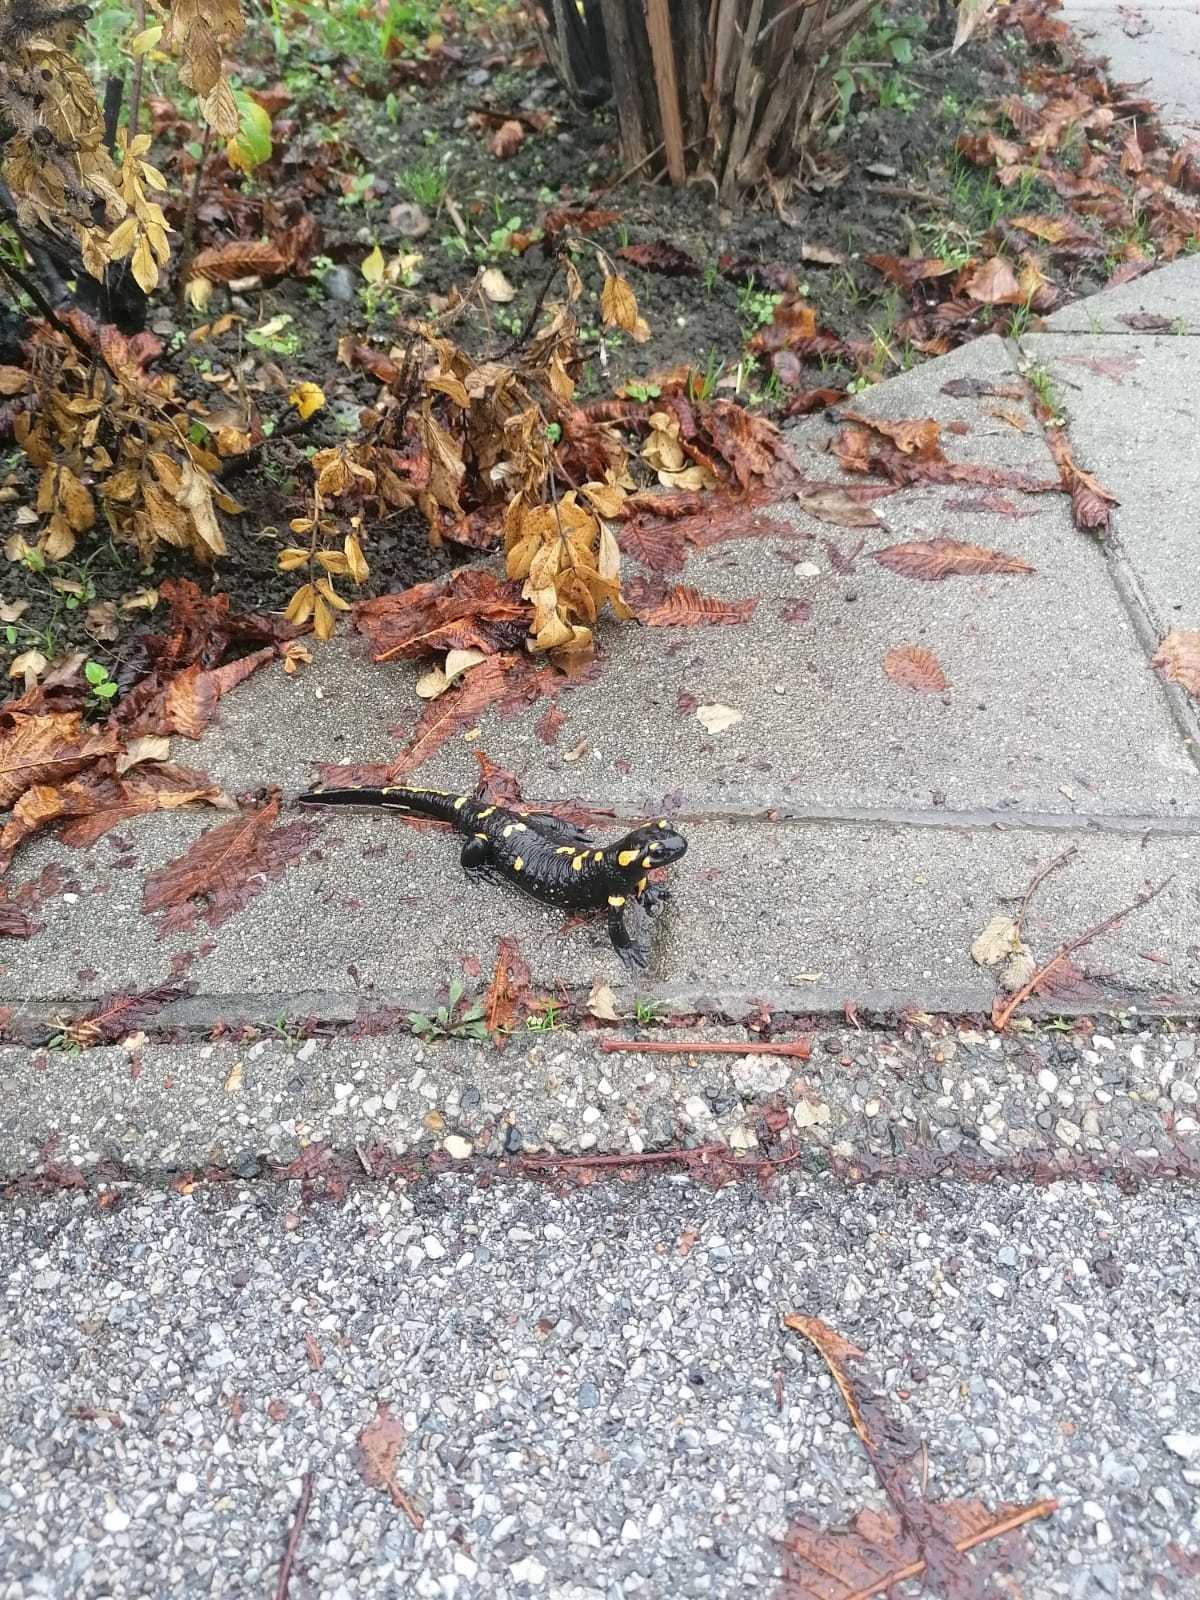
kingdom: Animalia
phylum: Chordata
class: Amphibia
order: Caudata
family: Salamandridae
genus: Salamandra
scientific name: Salamandra salamandra
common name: Fire salamander
